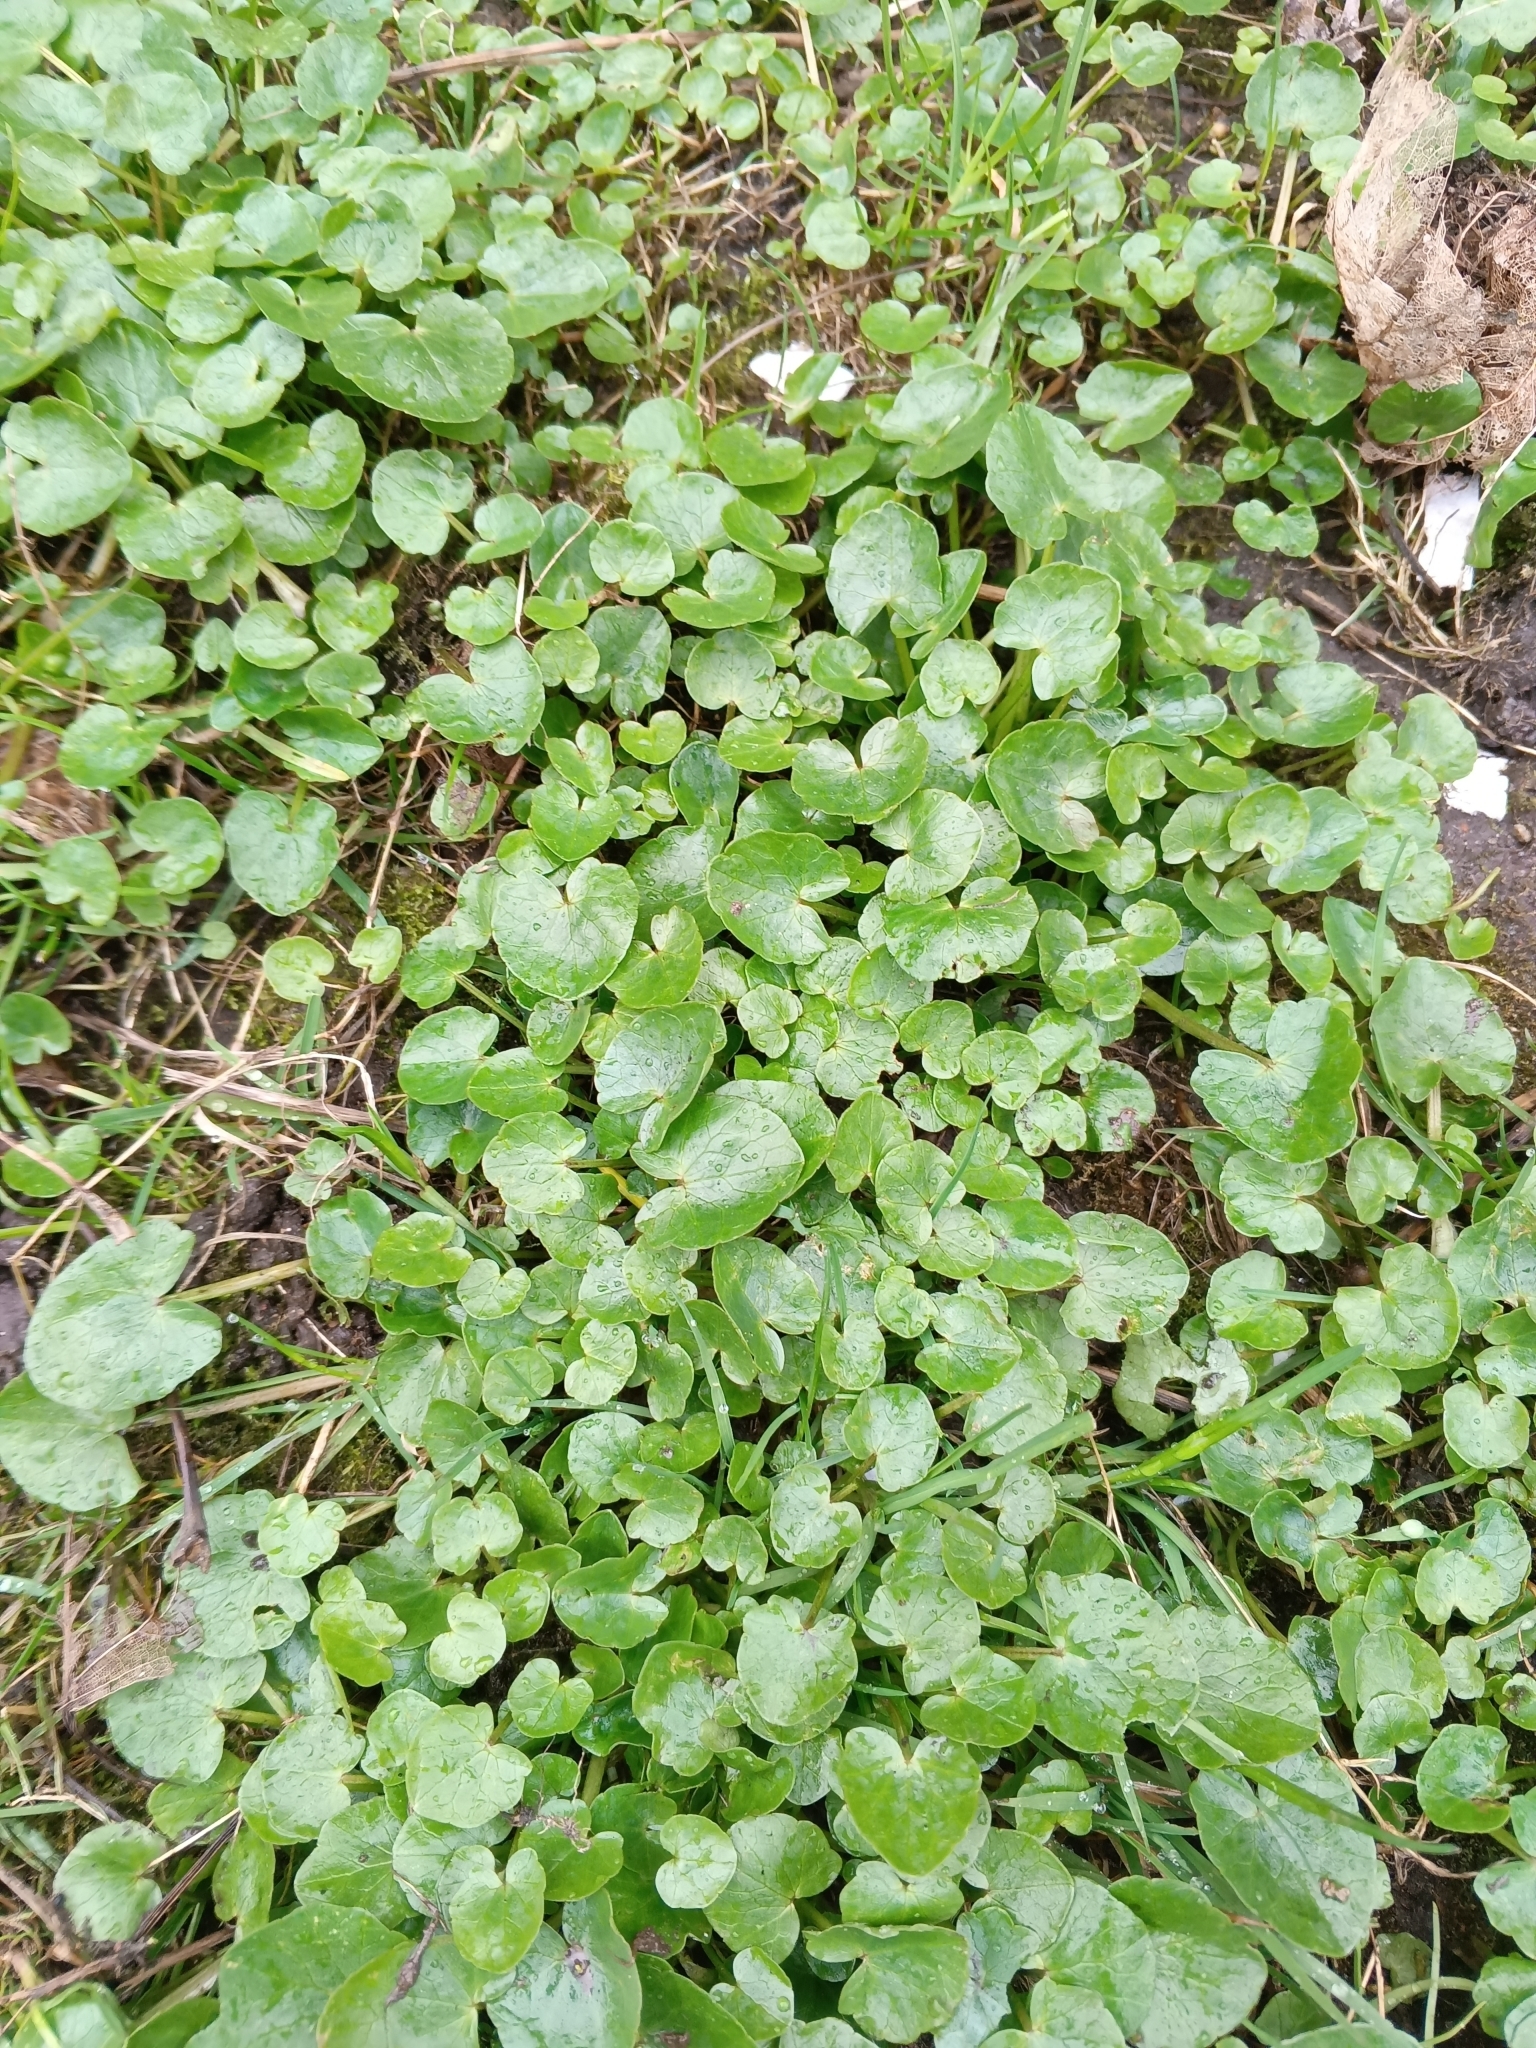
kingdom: Plantae
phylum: Tracheophyta
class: Magnoliopsida
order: Ranunculales
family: Ranunculaceae
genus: Ficaria
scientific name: Ficaria verna
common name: Lesser celandine
